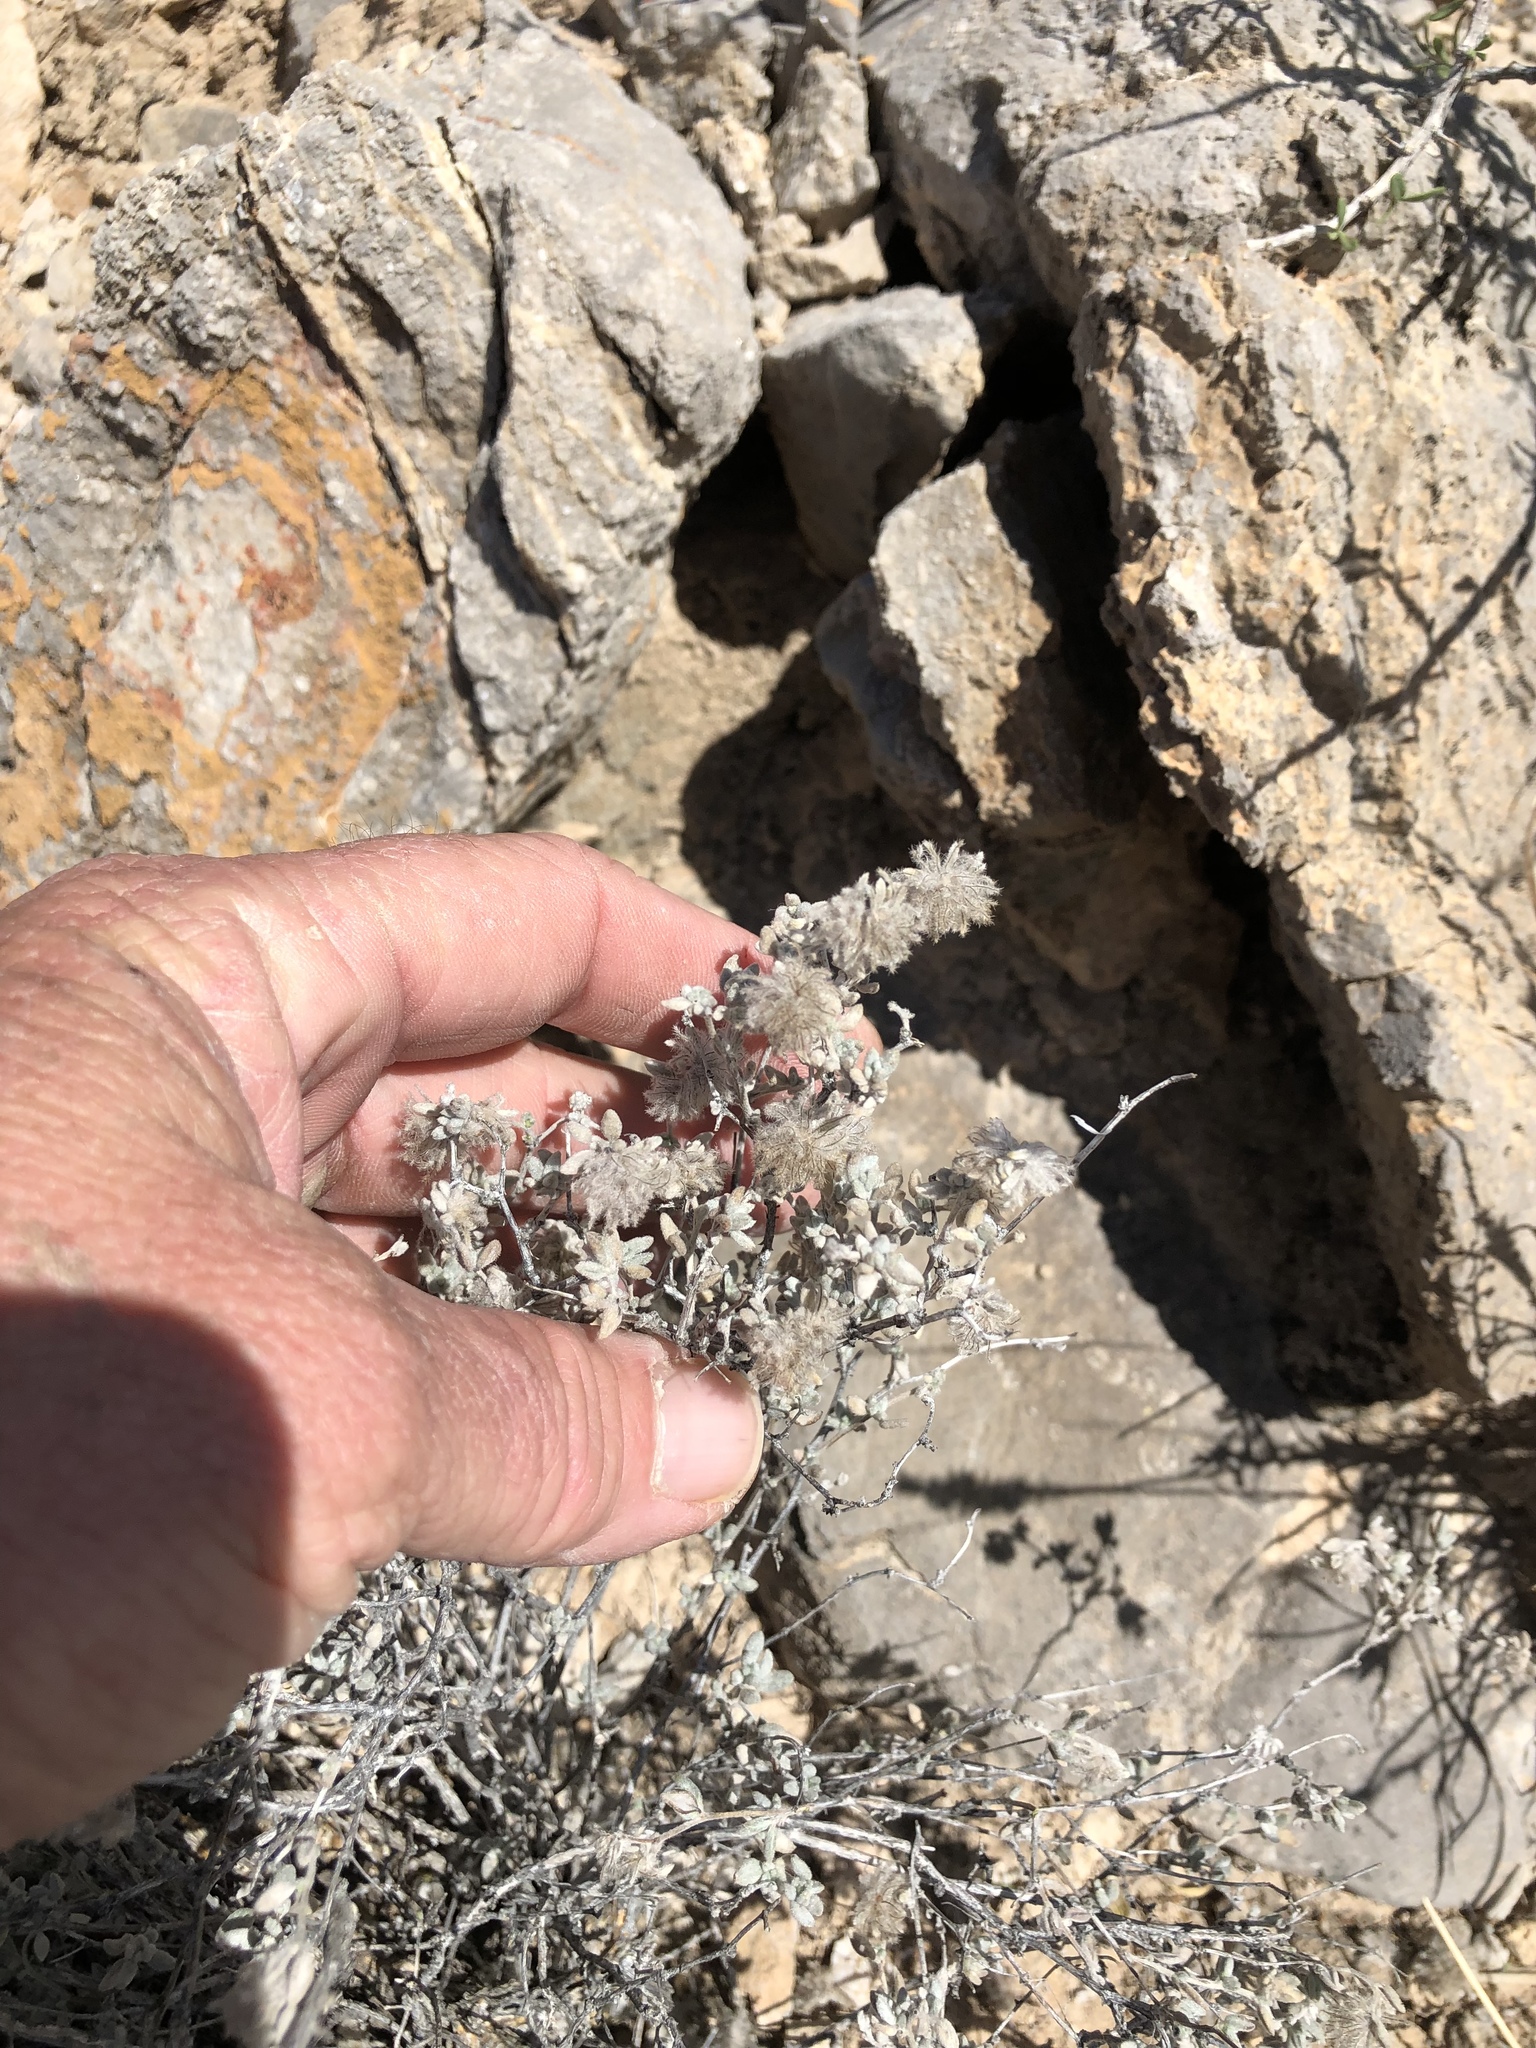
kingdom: Plantae
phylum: Tracheophyta
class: Magnoliopsida
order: Boraginales
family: Ehretiaceae
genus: Tiquilia
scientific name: Tiquilia greggii
